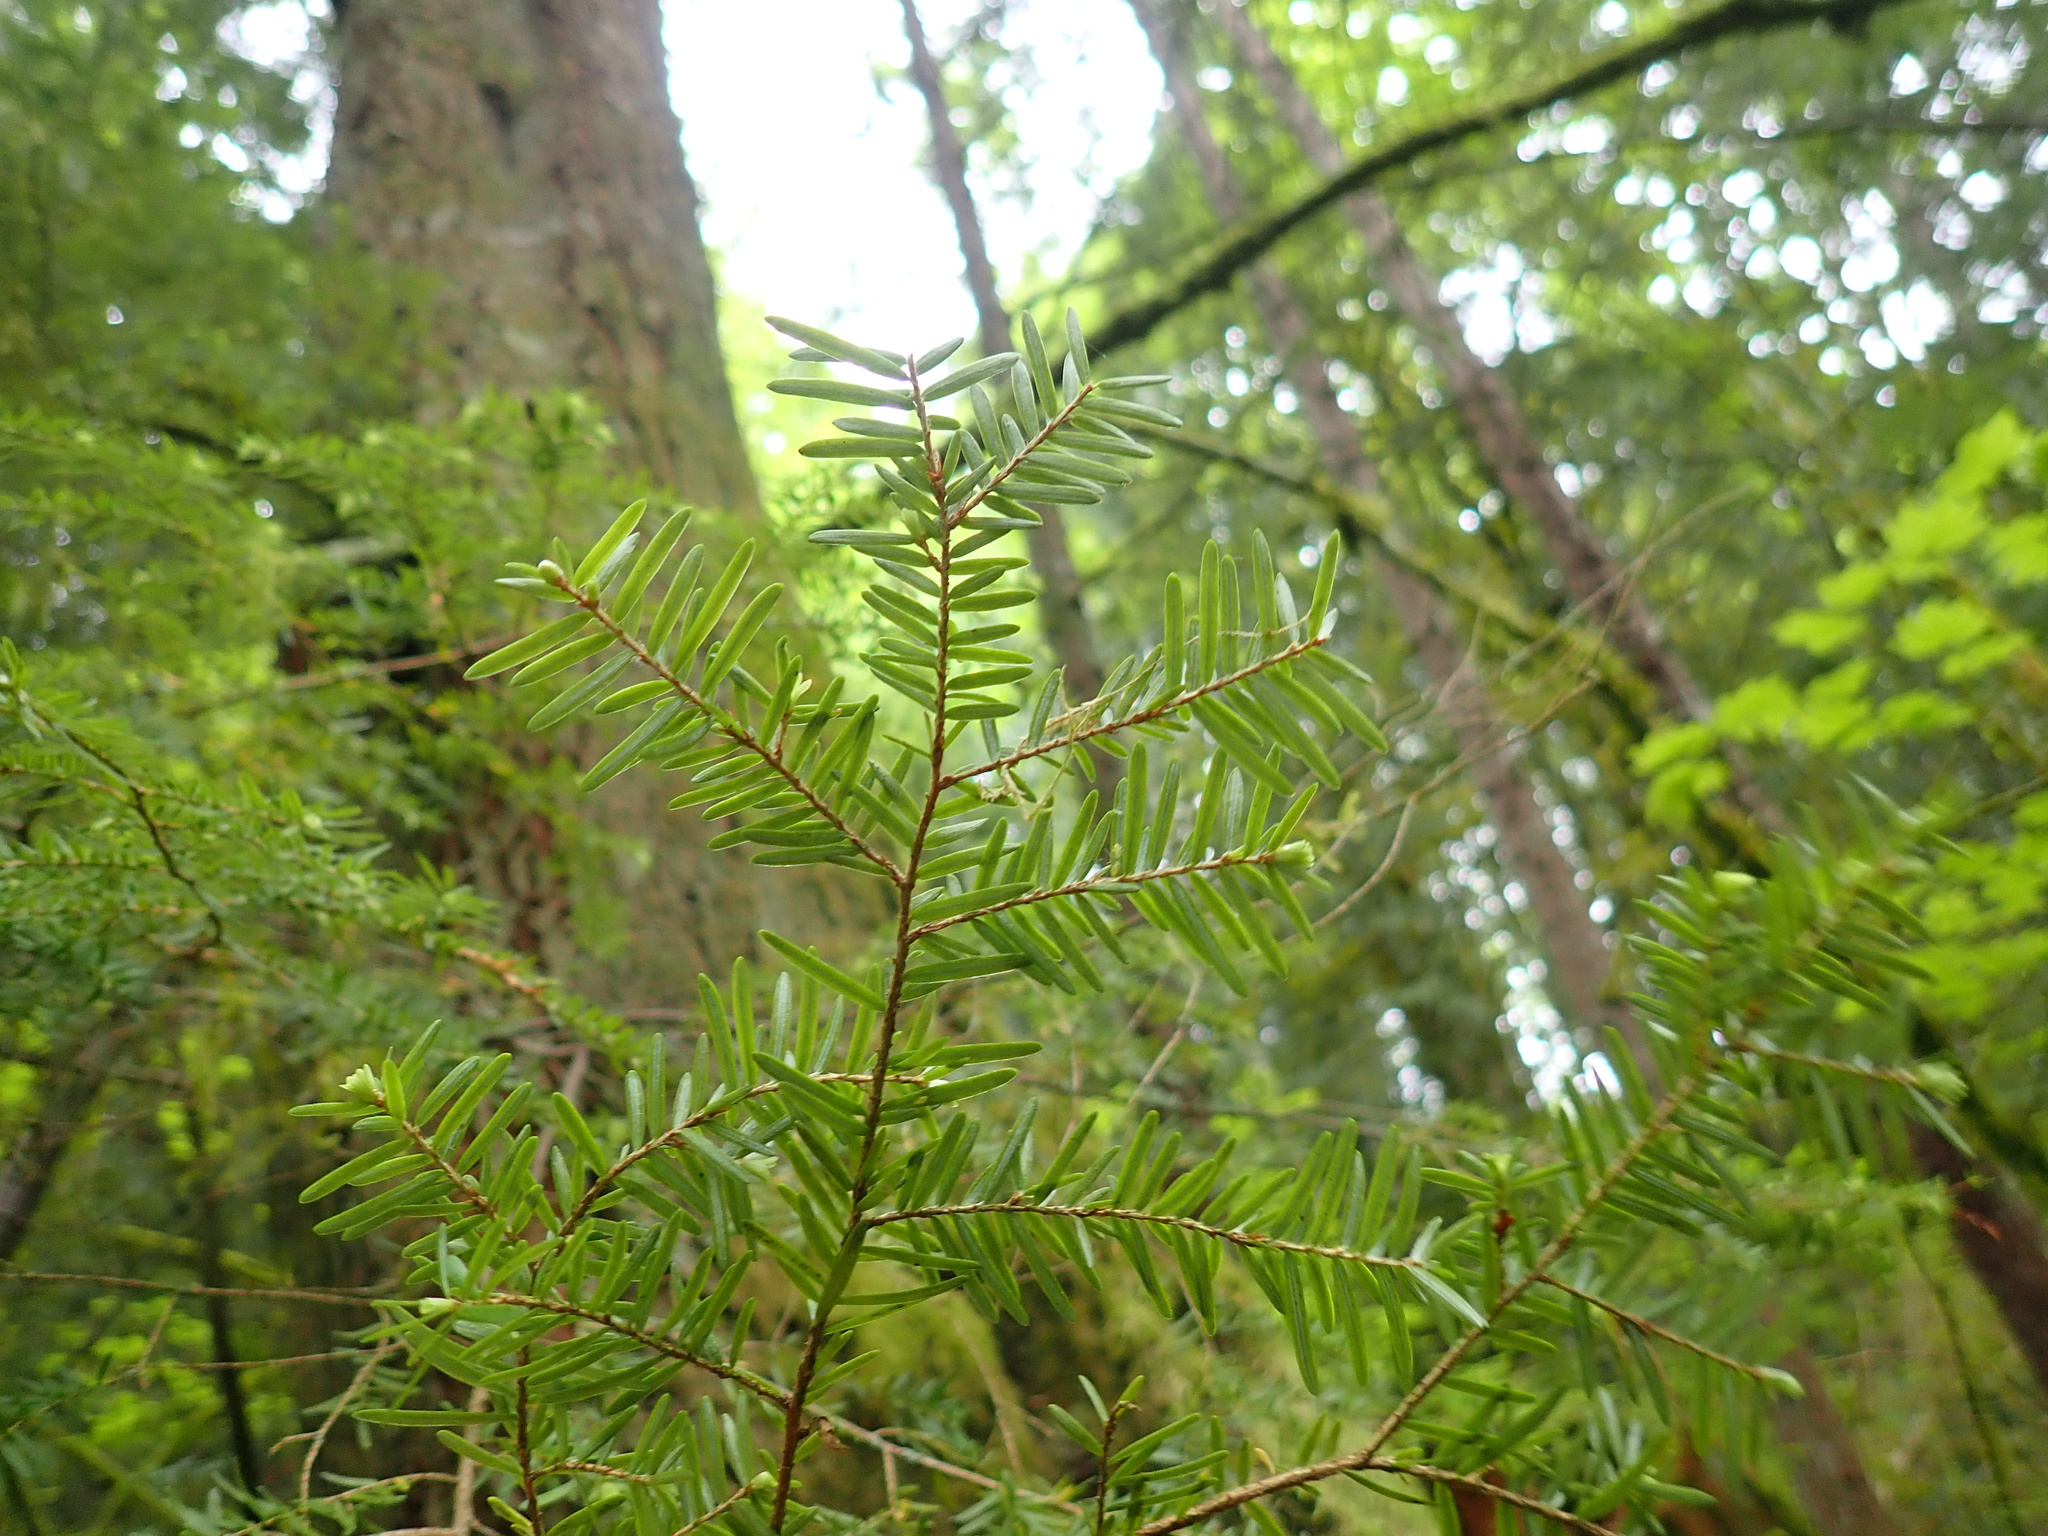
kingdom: Plantae
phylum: Tracheophyta
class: Pinopsida
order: Pinales
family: Pinaceae
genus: Tsuga
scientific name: Tsuga heterophylla
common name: Western hemlock
